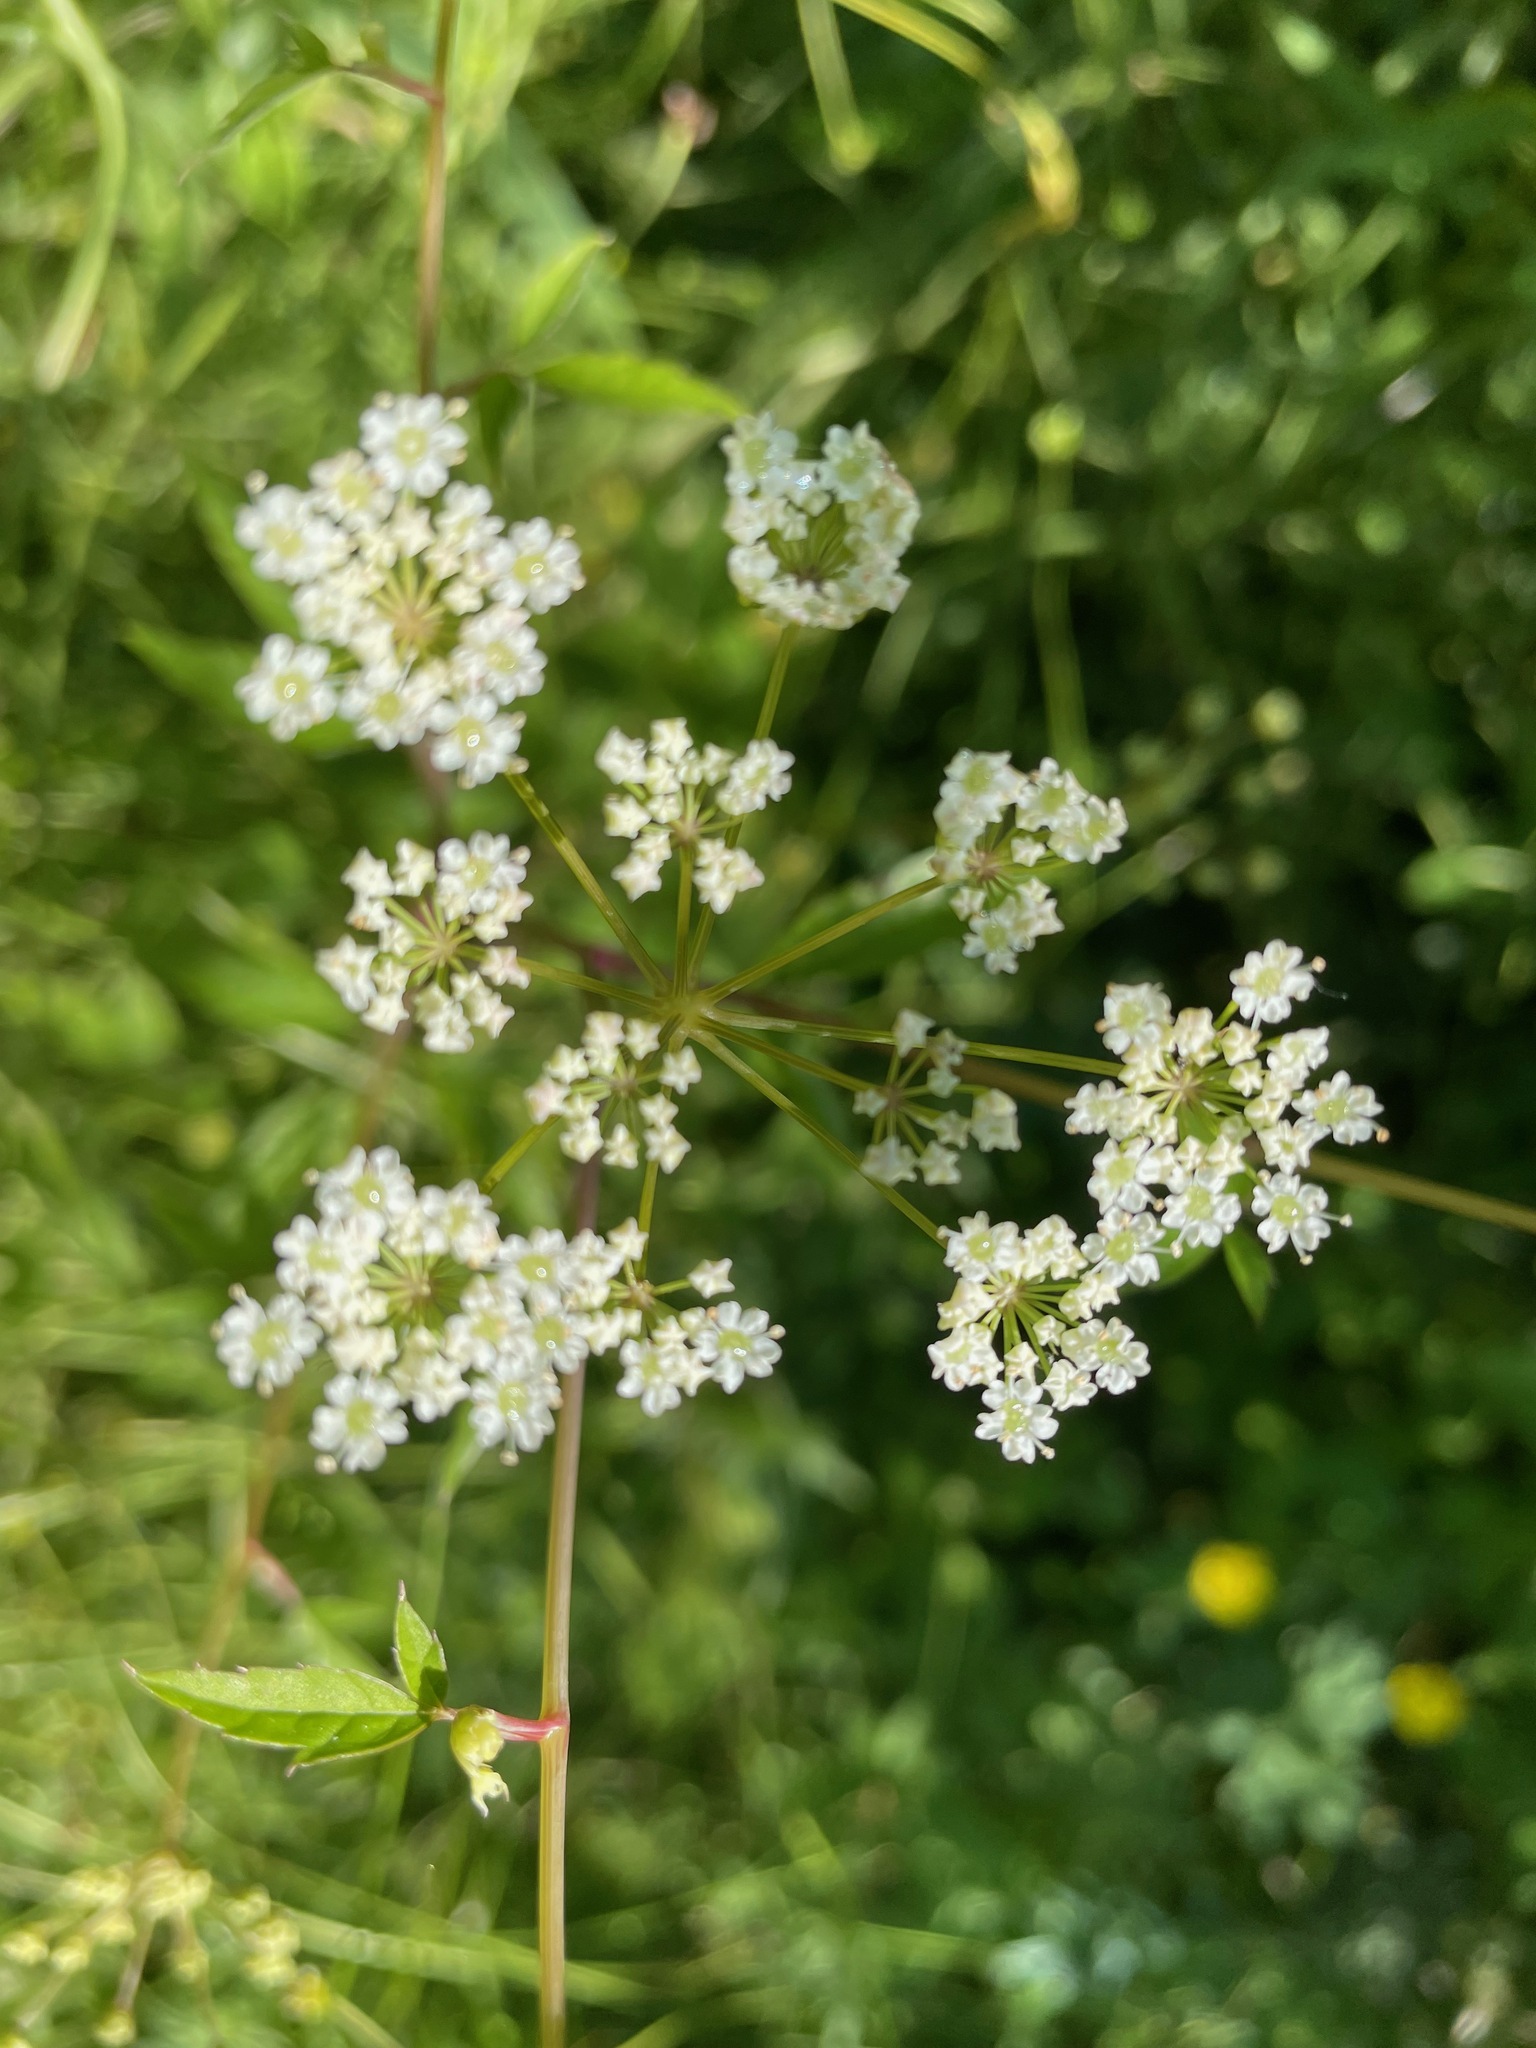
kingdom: Plantae
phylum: Tracheophyta
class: Magnoliopsida
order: Apiales
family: Apiaceae
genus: Cicuta
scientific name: Cicuta maculata
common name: Spotted cowbane
